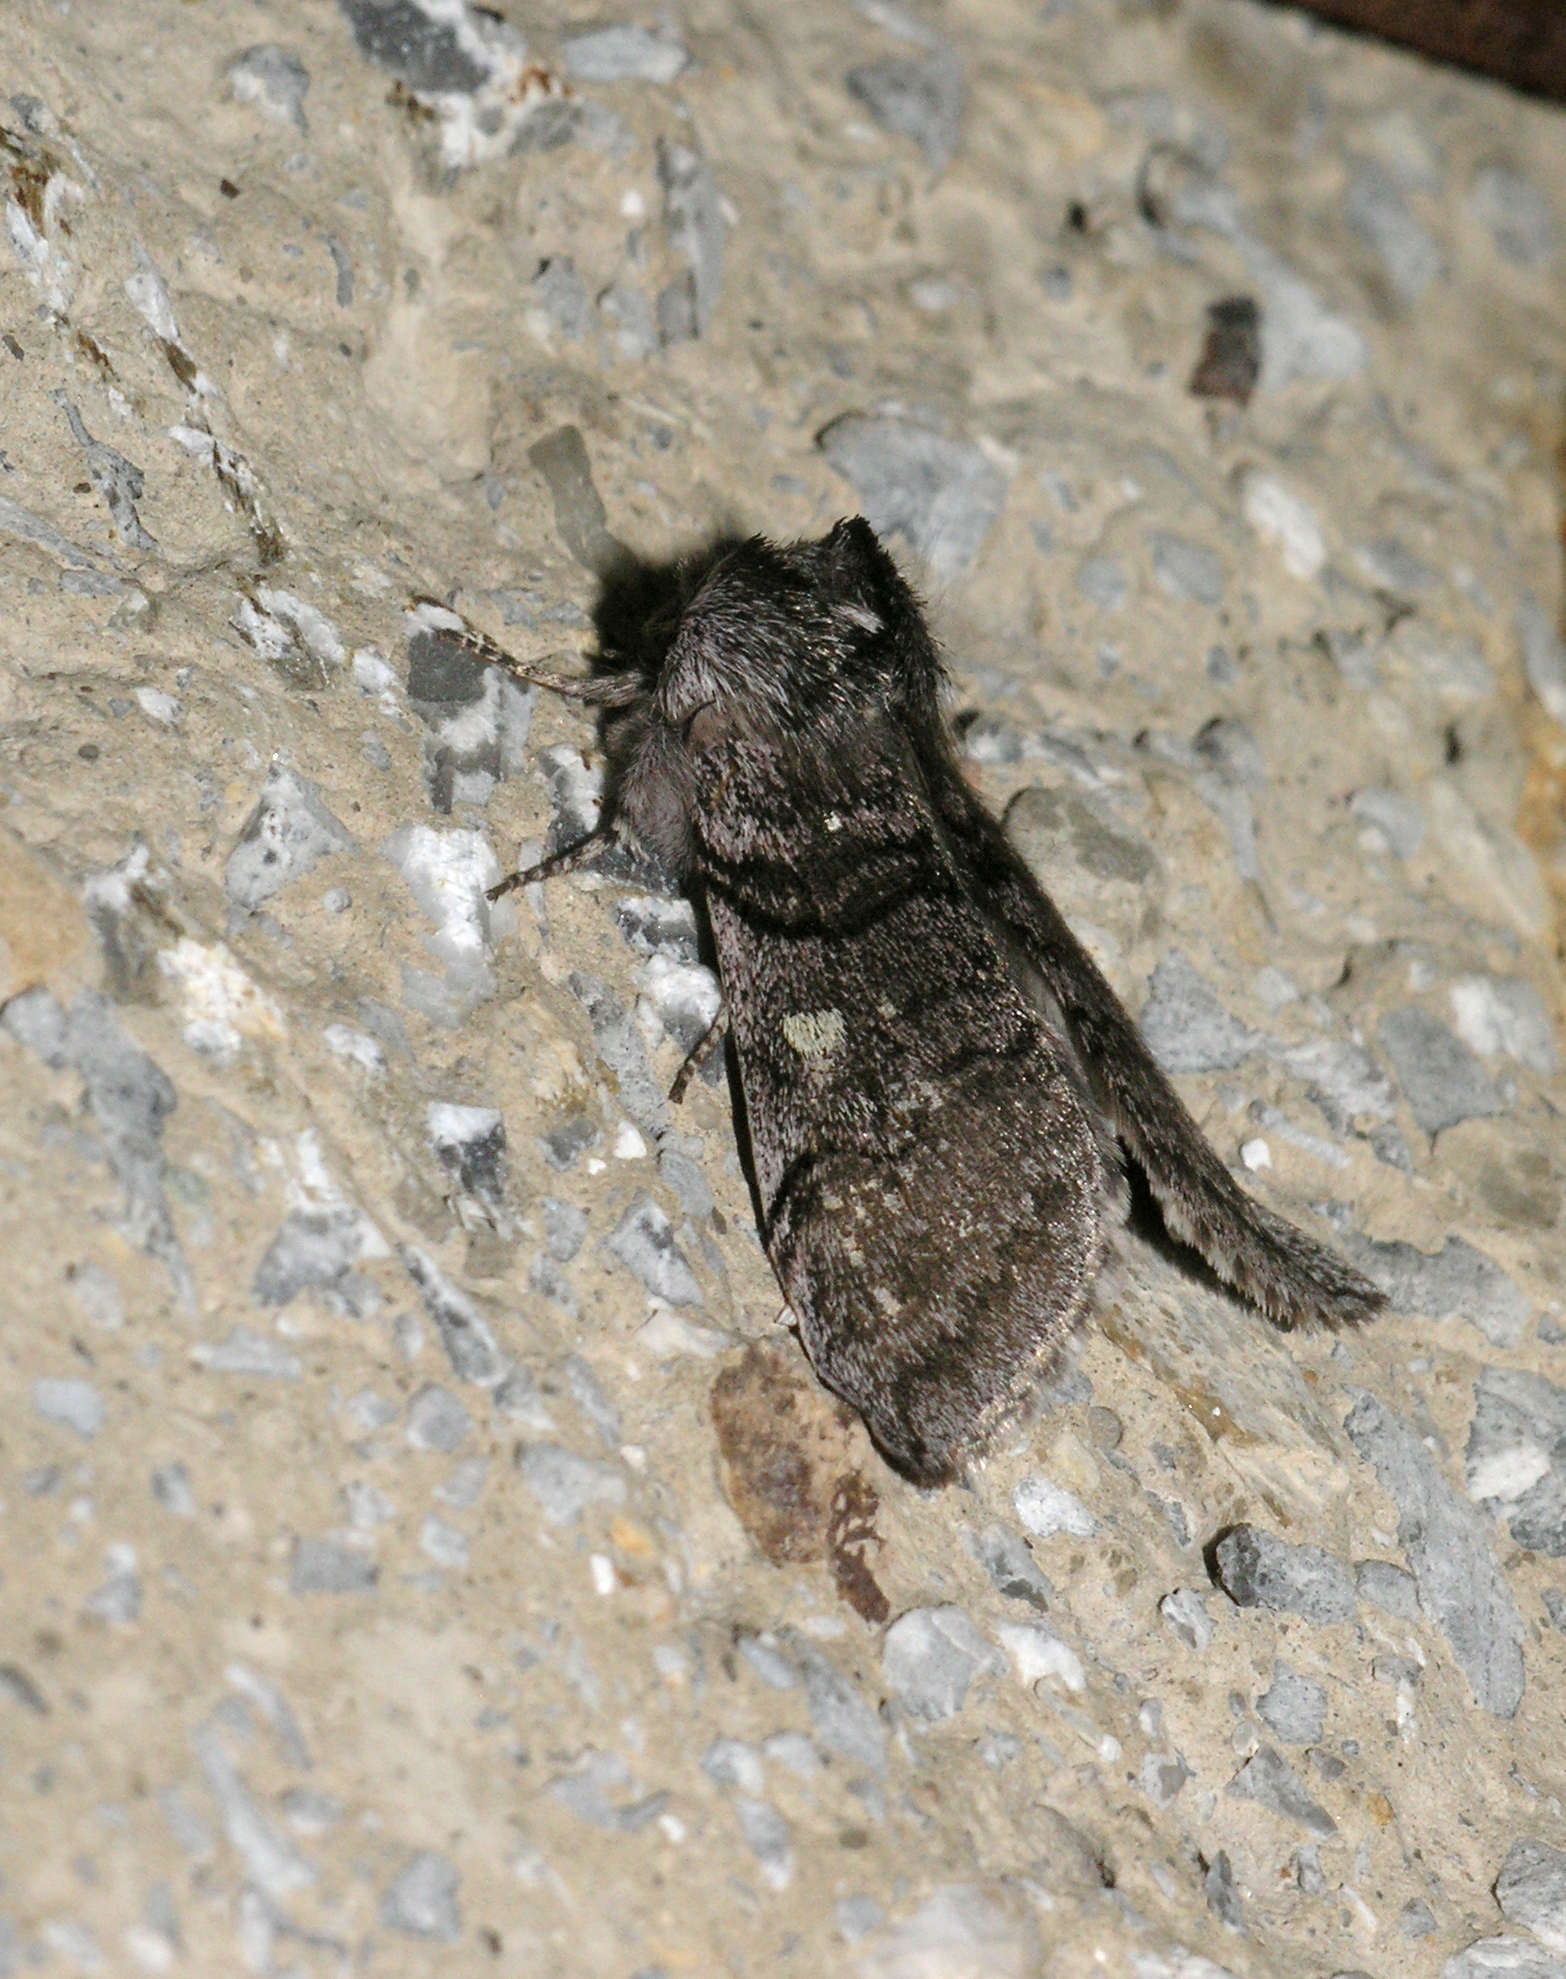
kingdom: Animalia
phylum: Arthropoda
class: Insecta
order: Lepidoptera
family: Drepanidae
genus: Achlya
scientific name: Achlya flavicornis
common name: Yellow horned
